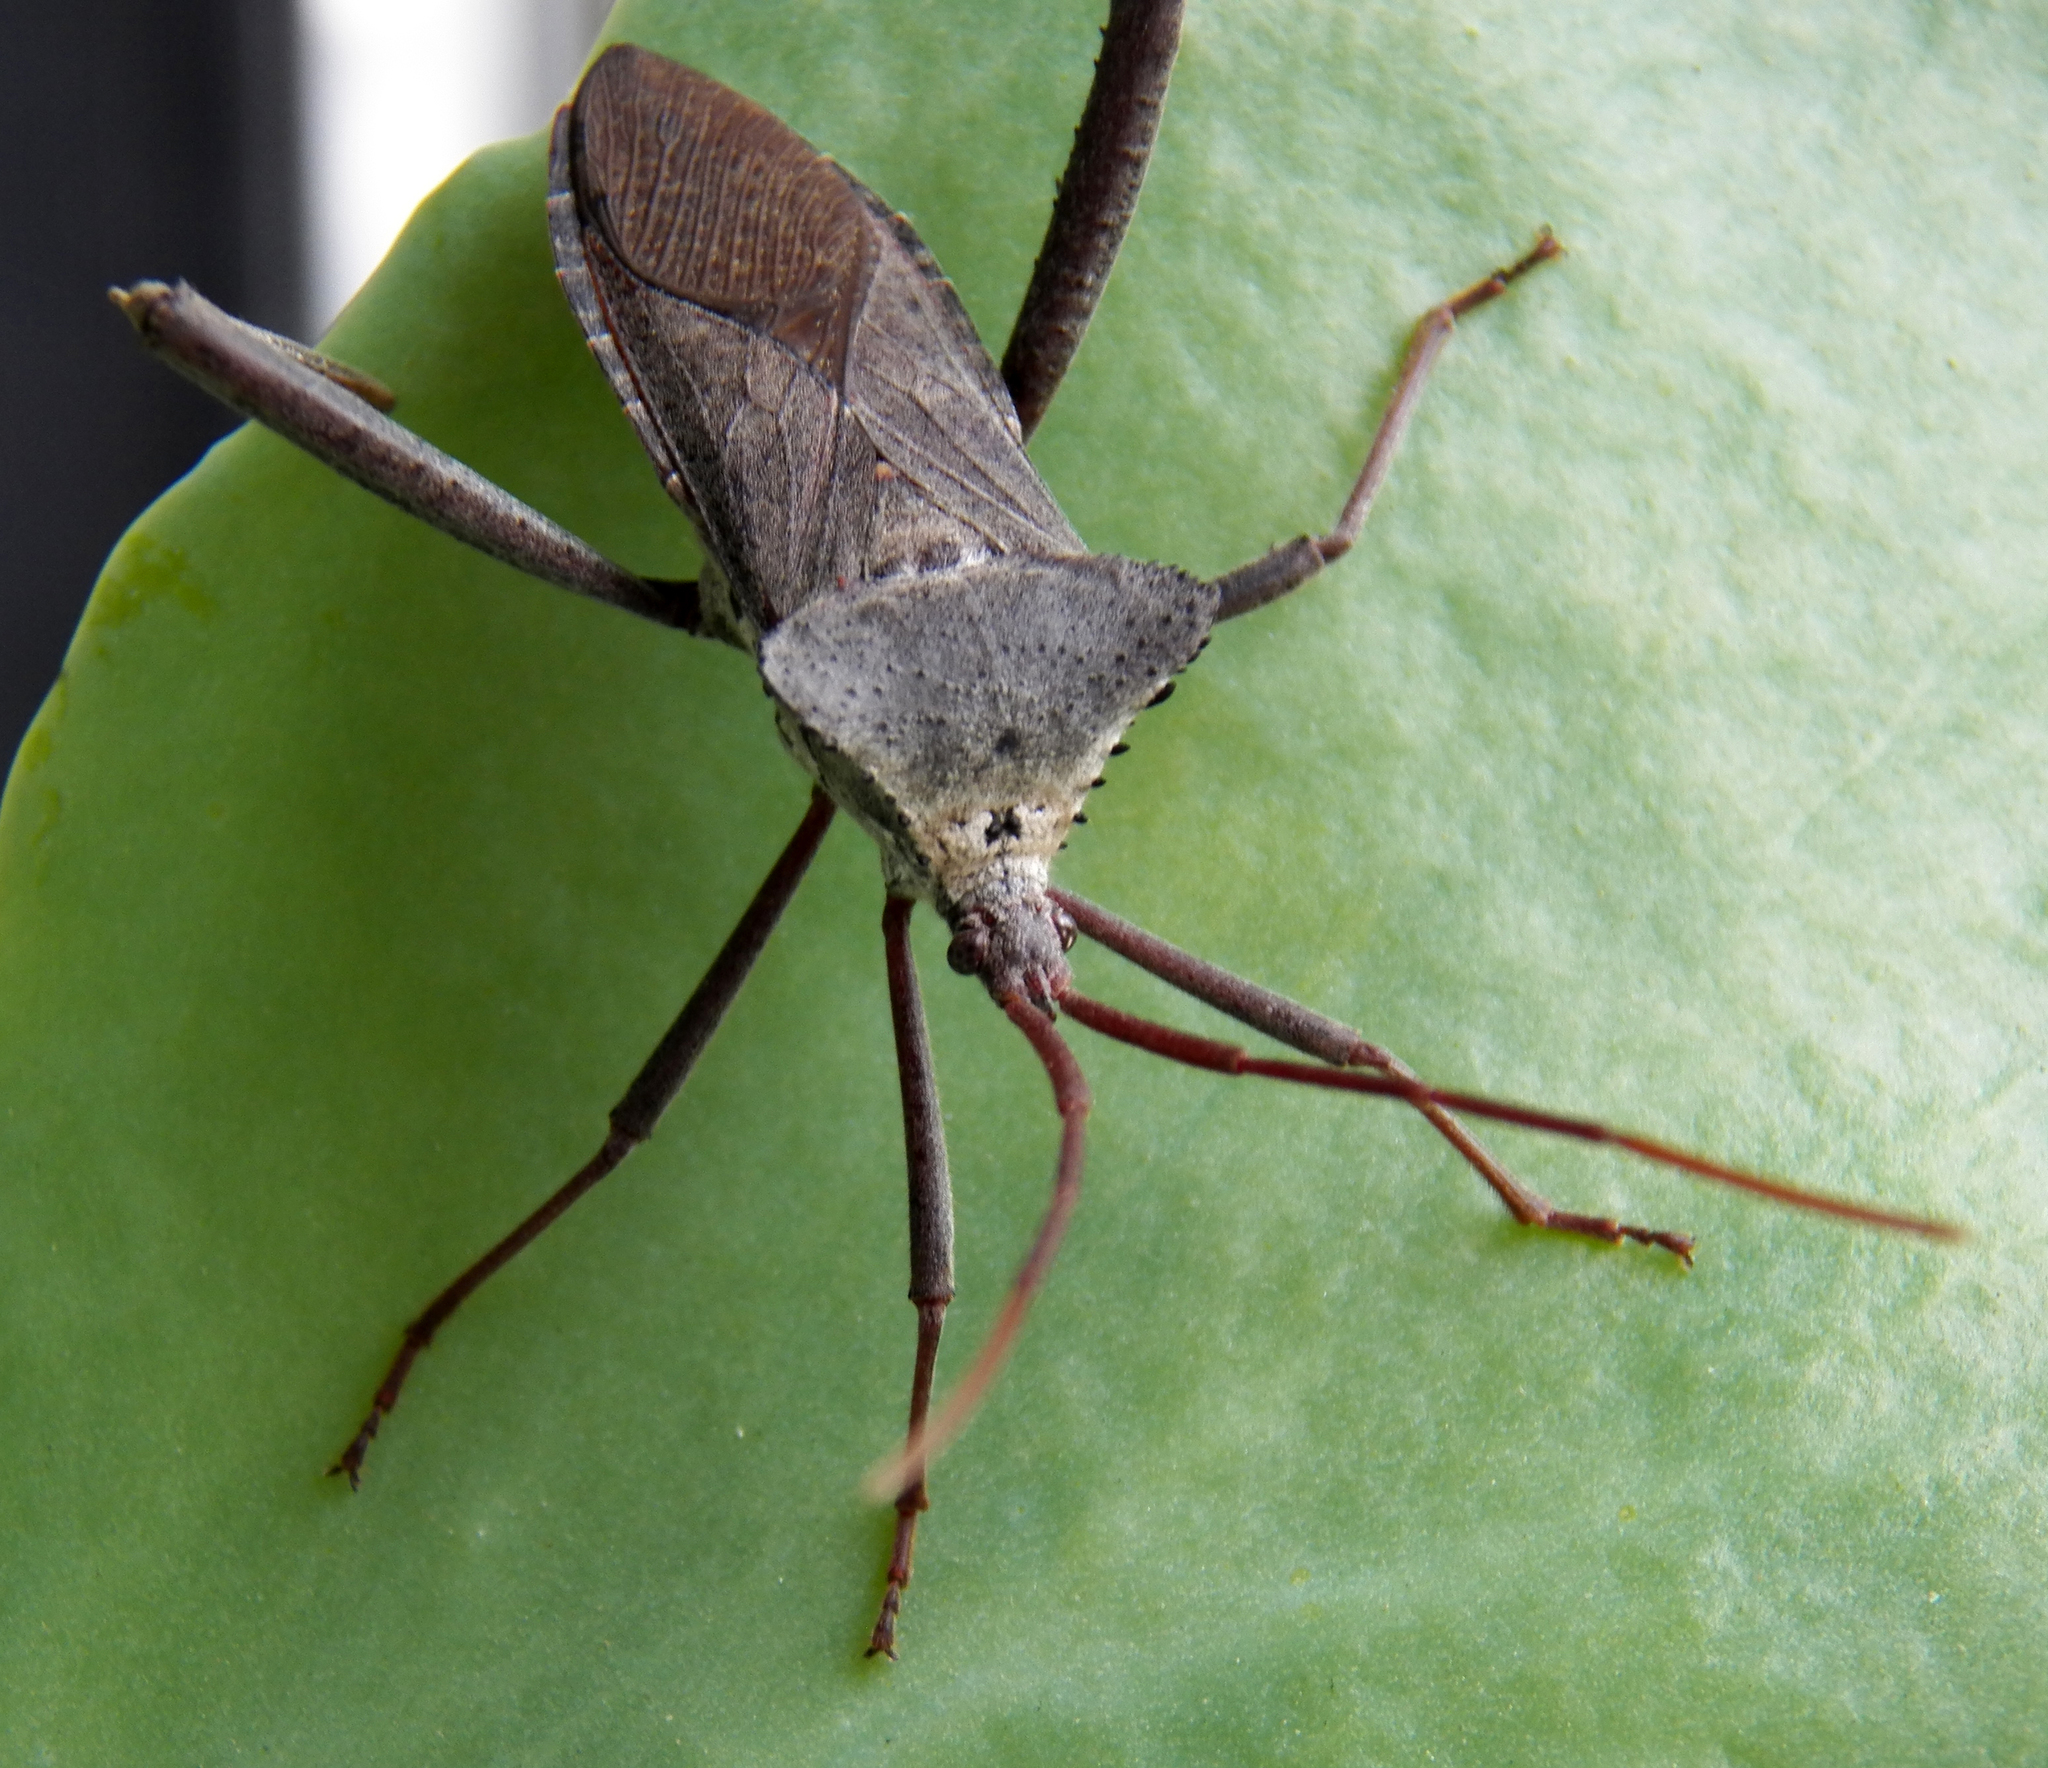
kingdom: Animalia
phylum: Arthropoda
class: Insecta
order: Hemiptera
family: Coreidae
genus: Acanthocephala
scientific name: Acanthocephala declivis
